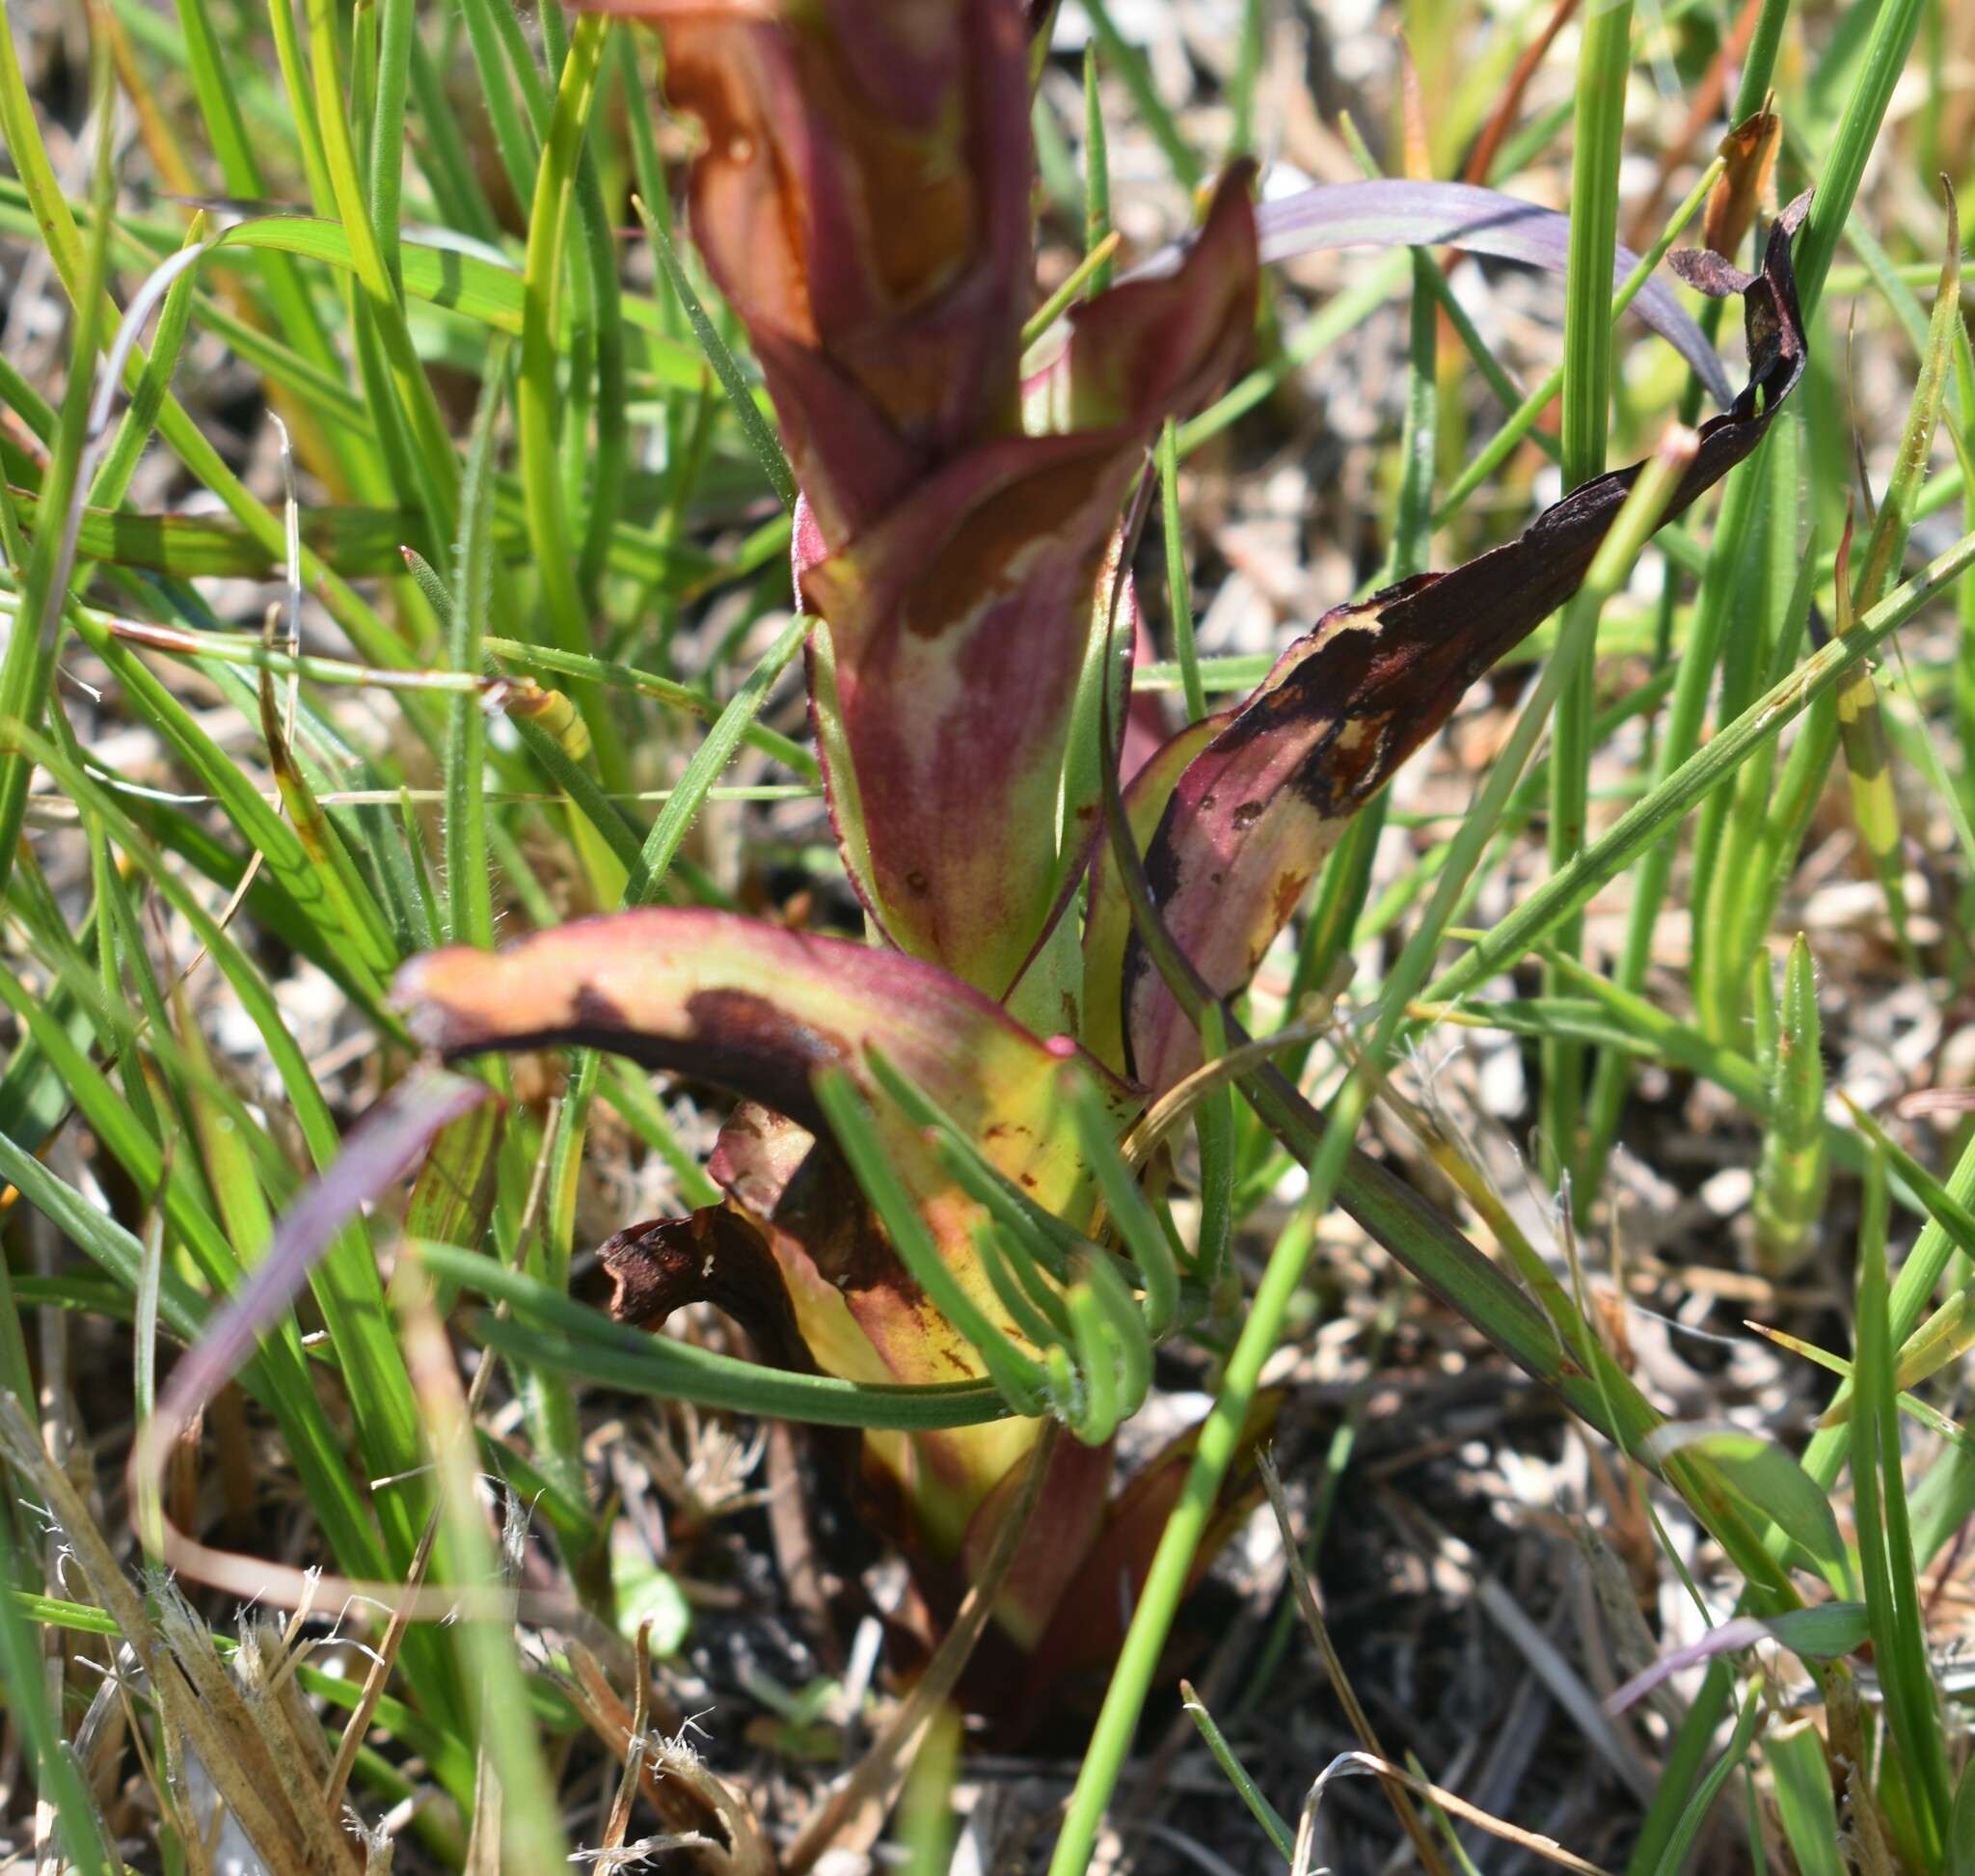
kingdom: Plantae
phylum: Tracheophyta
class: Liliopsida
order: Asparagales
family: Orchidaceae
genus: Disa
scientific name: Disa cernua
